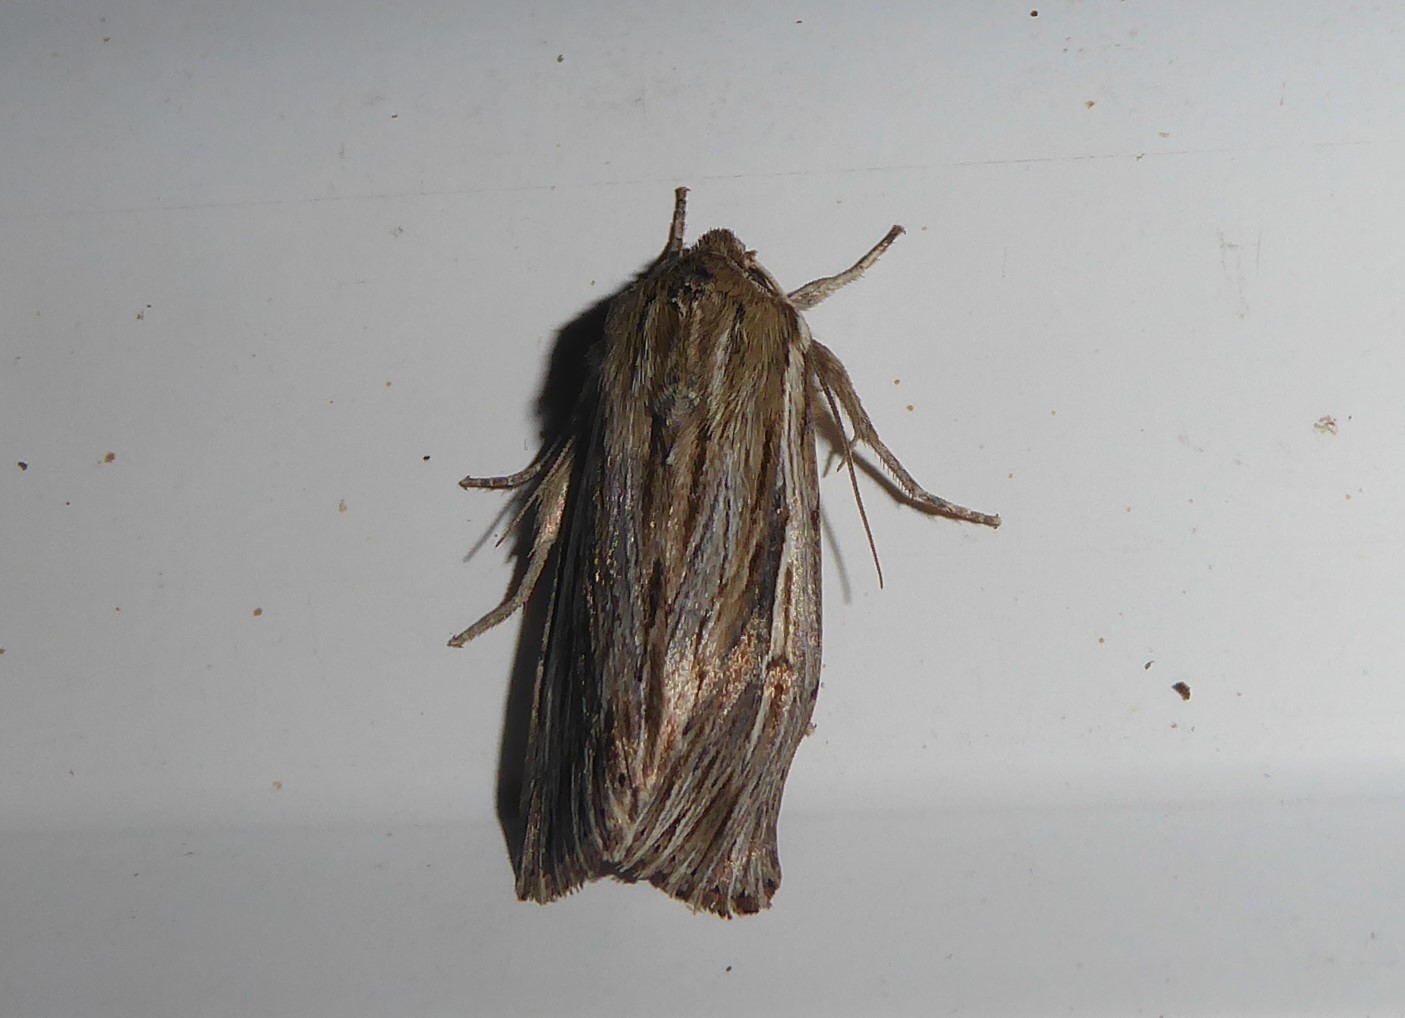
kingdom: Animalia
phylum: Arthropoda
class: Insecta
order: Lepidoptera
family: Noctuidae
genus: Persectania
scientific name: Persectania aversa
